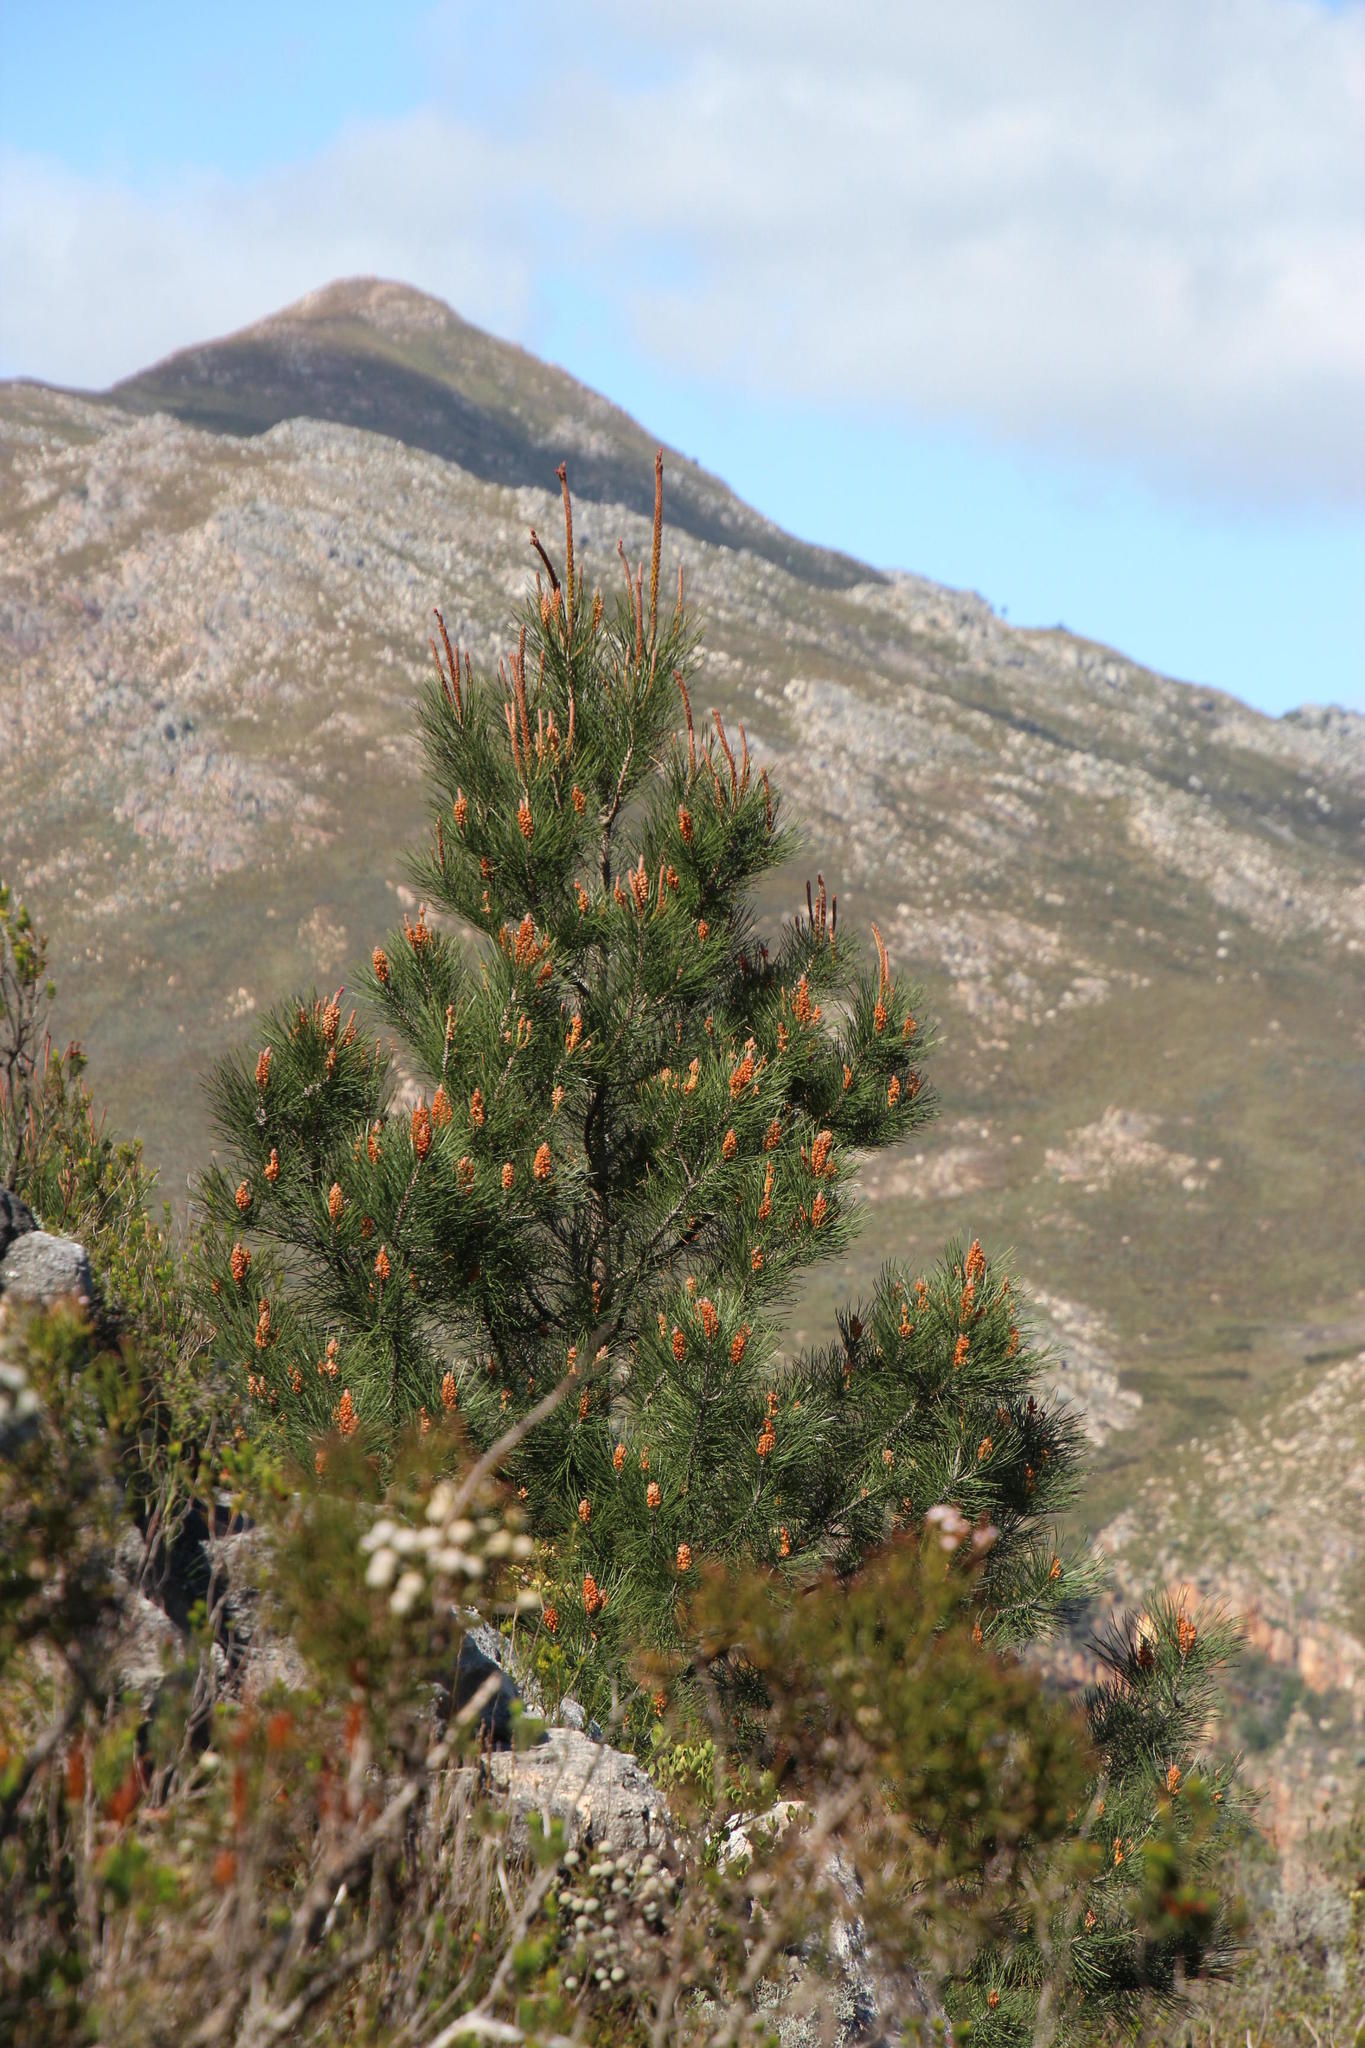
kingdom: Plantae
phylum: Tracheophyta
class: Pinopsida
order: Pinales
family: Pinaceae
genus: Pinus
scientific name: Pinus pinaster
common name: Maritime pine
